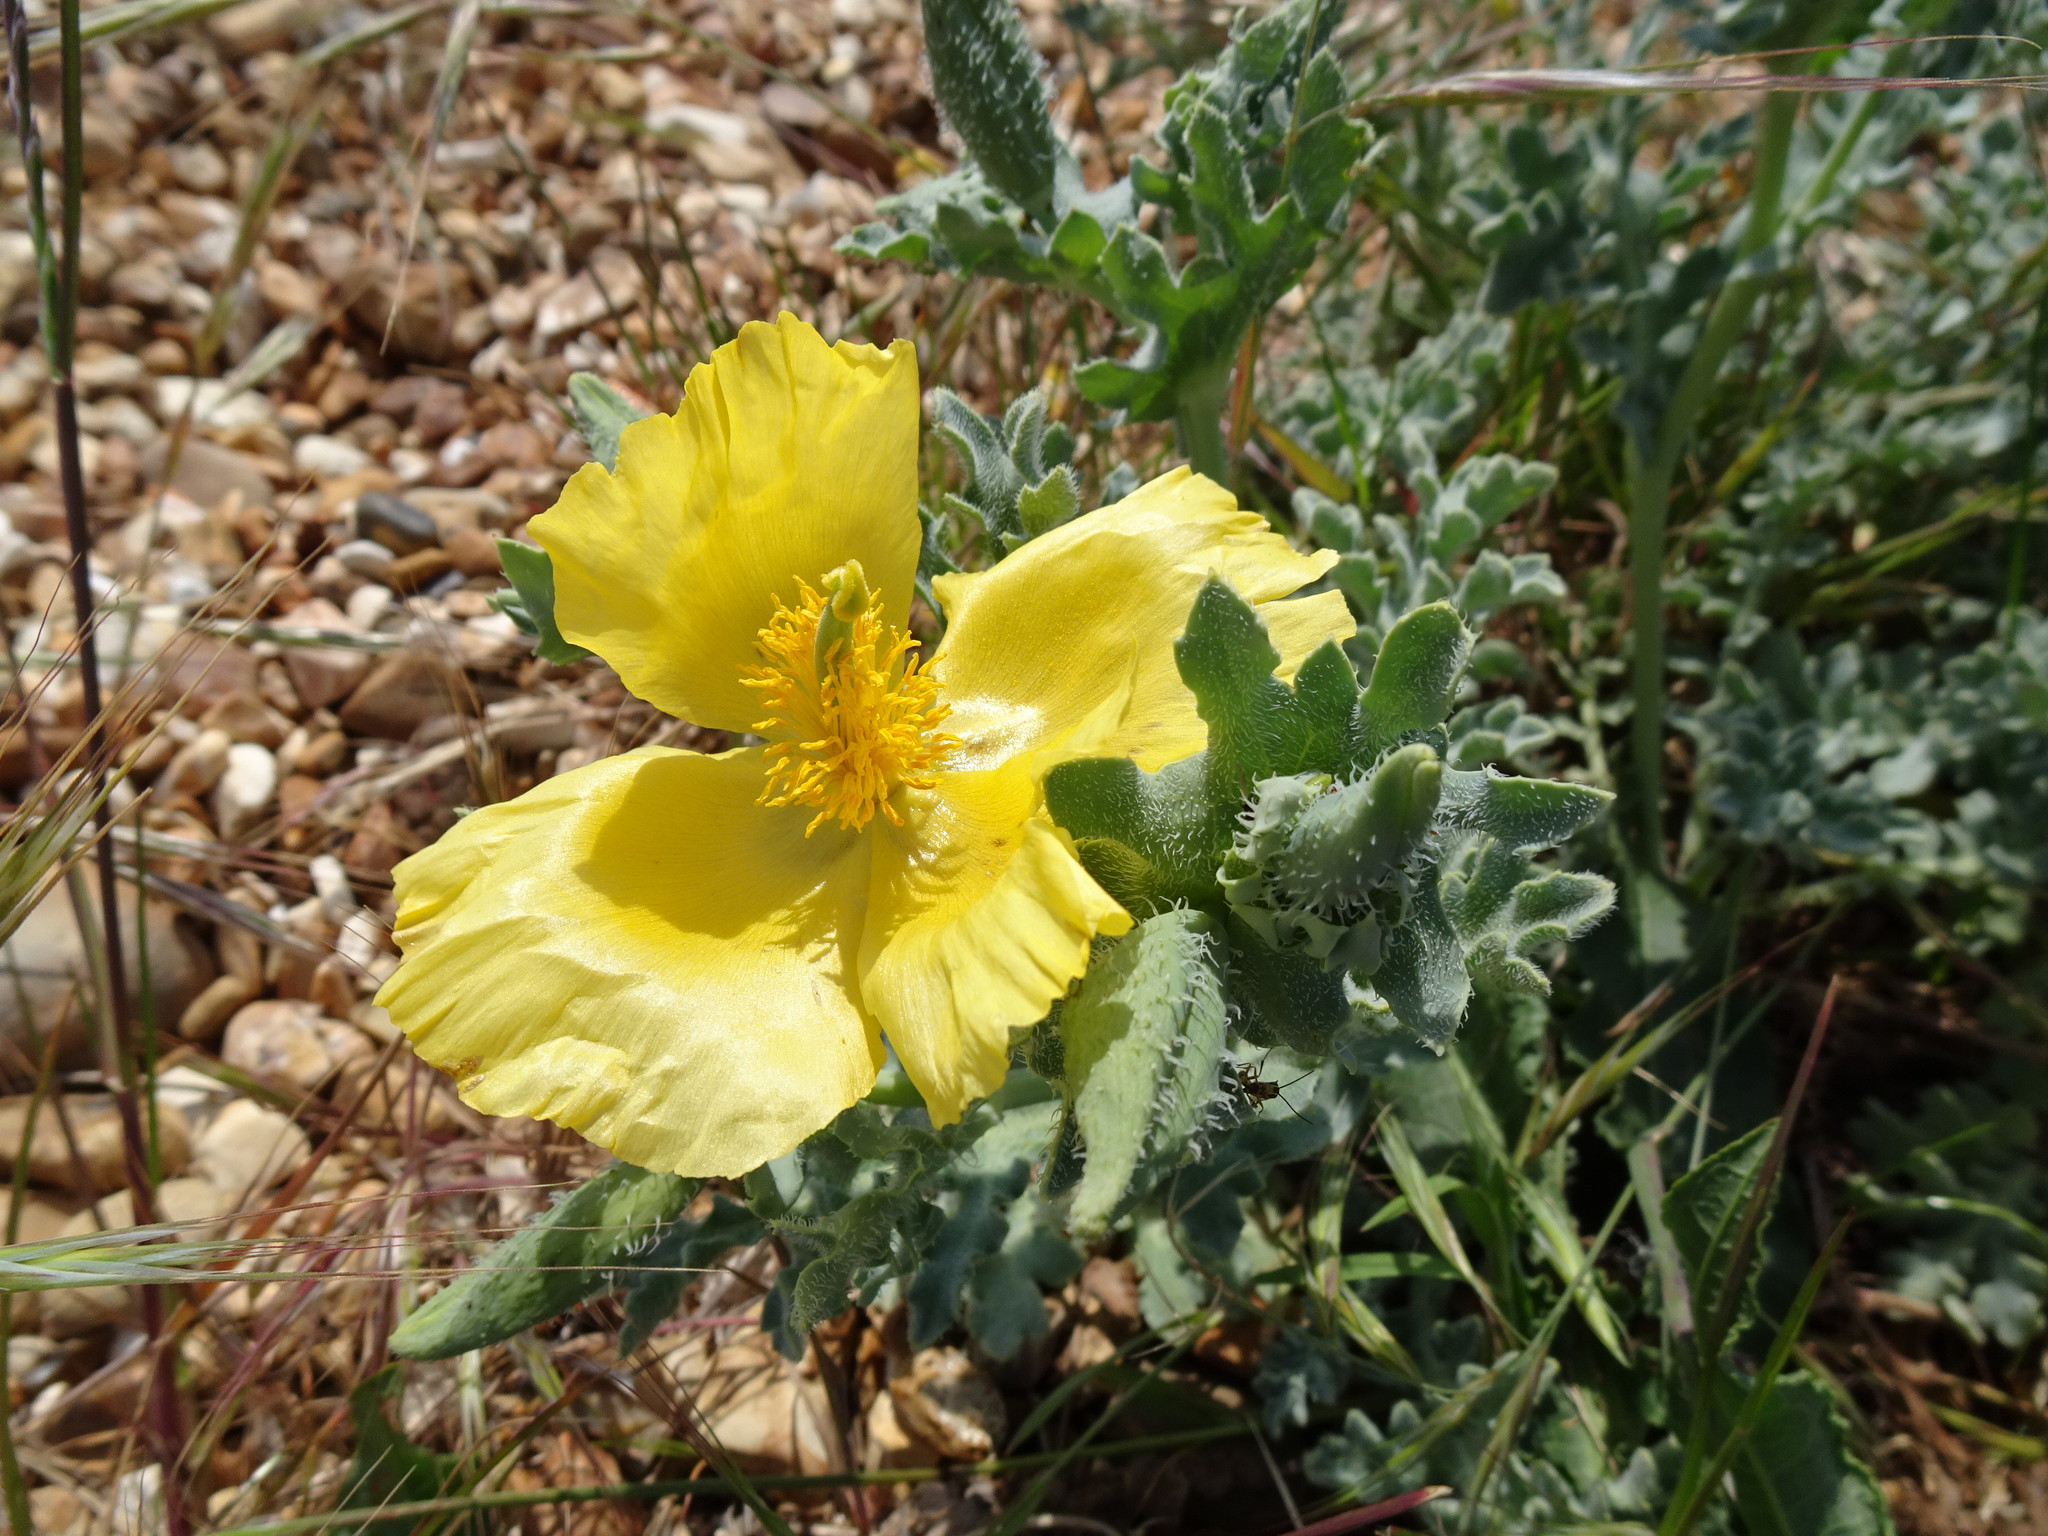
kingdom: Plantae
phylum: Tracheophyta
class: Magnoliopsida
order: Ranunculales
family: Papaveraceae
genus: Glaucium
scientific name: Glaucium flavum
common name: Yellow horned-poppy
